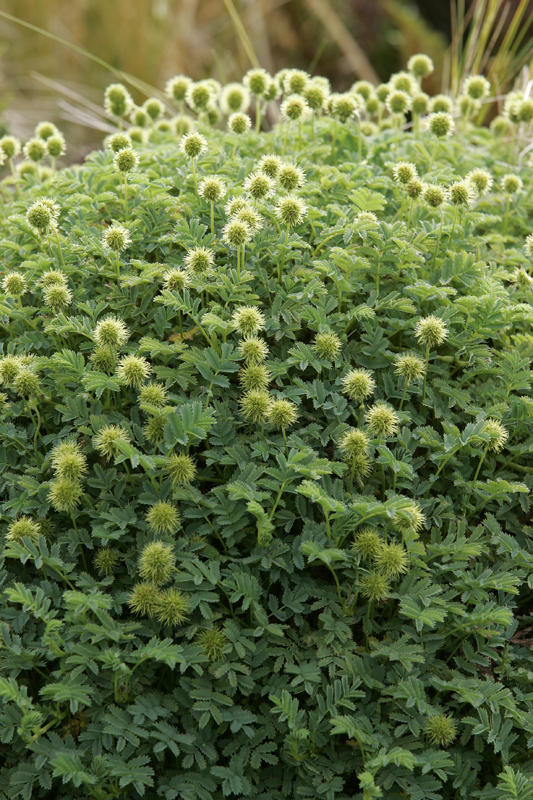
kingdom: Plantae
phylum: Tracheophyta
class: Magnoliopsida
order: Rosales
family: Rosaceae
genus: Acaena
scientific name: Acaena minor
